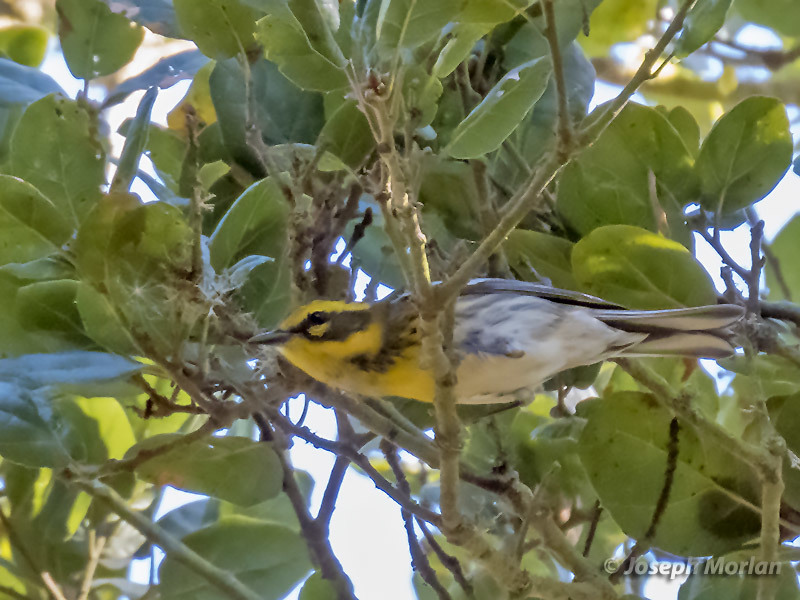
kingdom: Animalia
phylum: Chordata
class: Aves
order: Passeriformes
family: Parulidae
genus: Setophaga
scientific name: Setophaga townsendi
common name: Townsend's warbler
